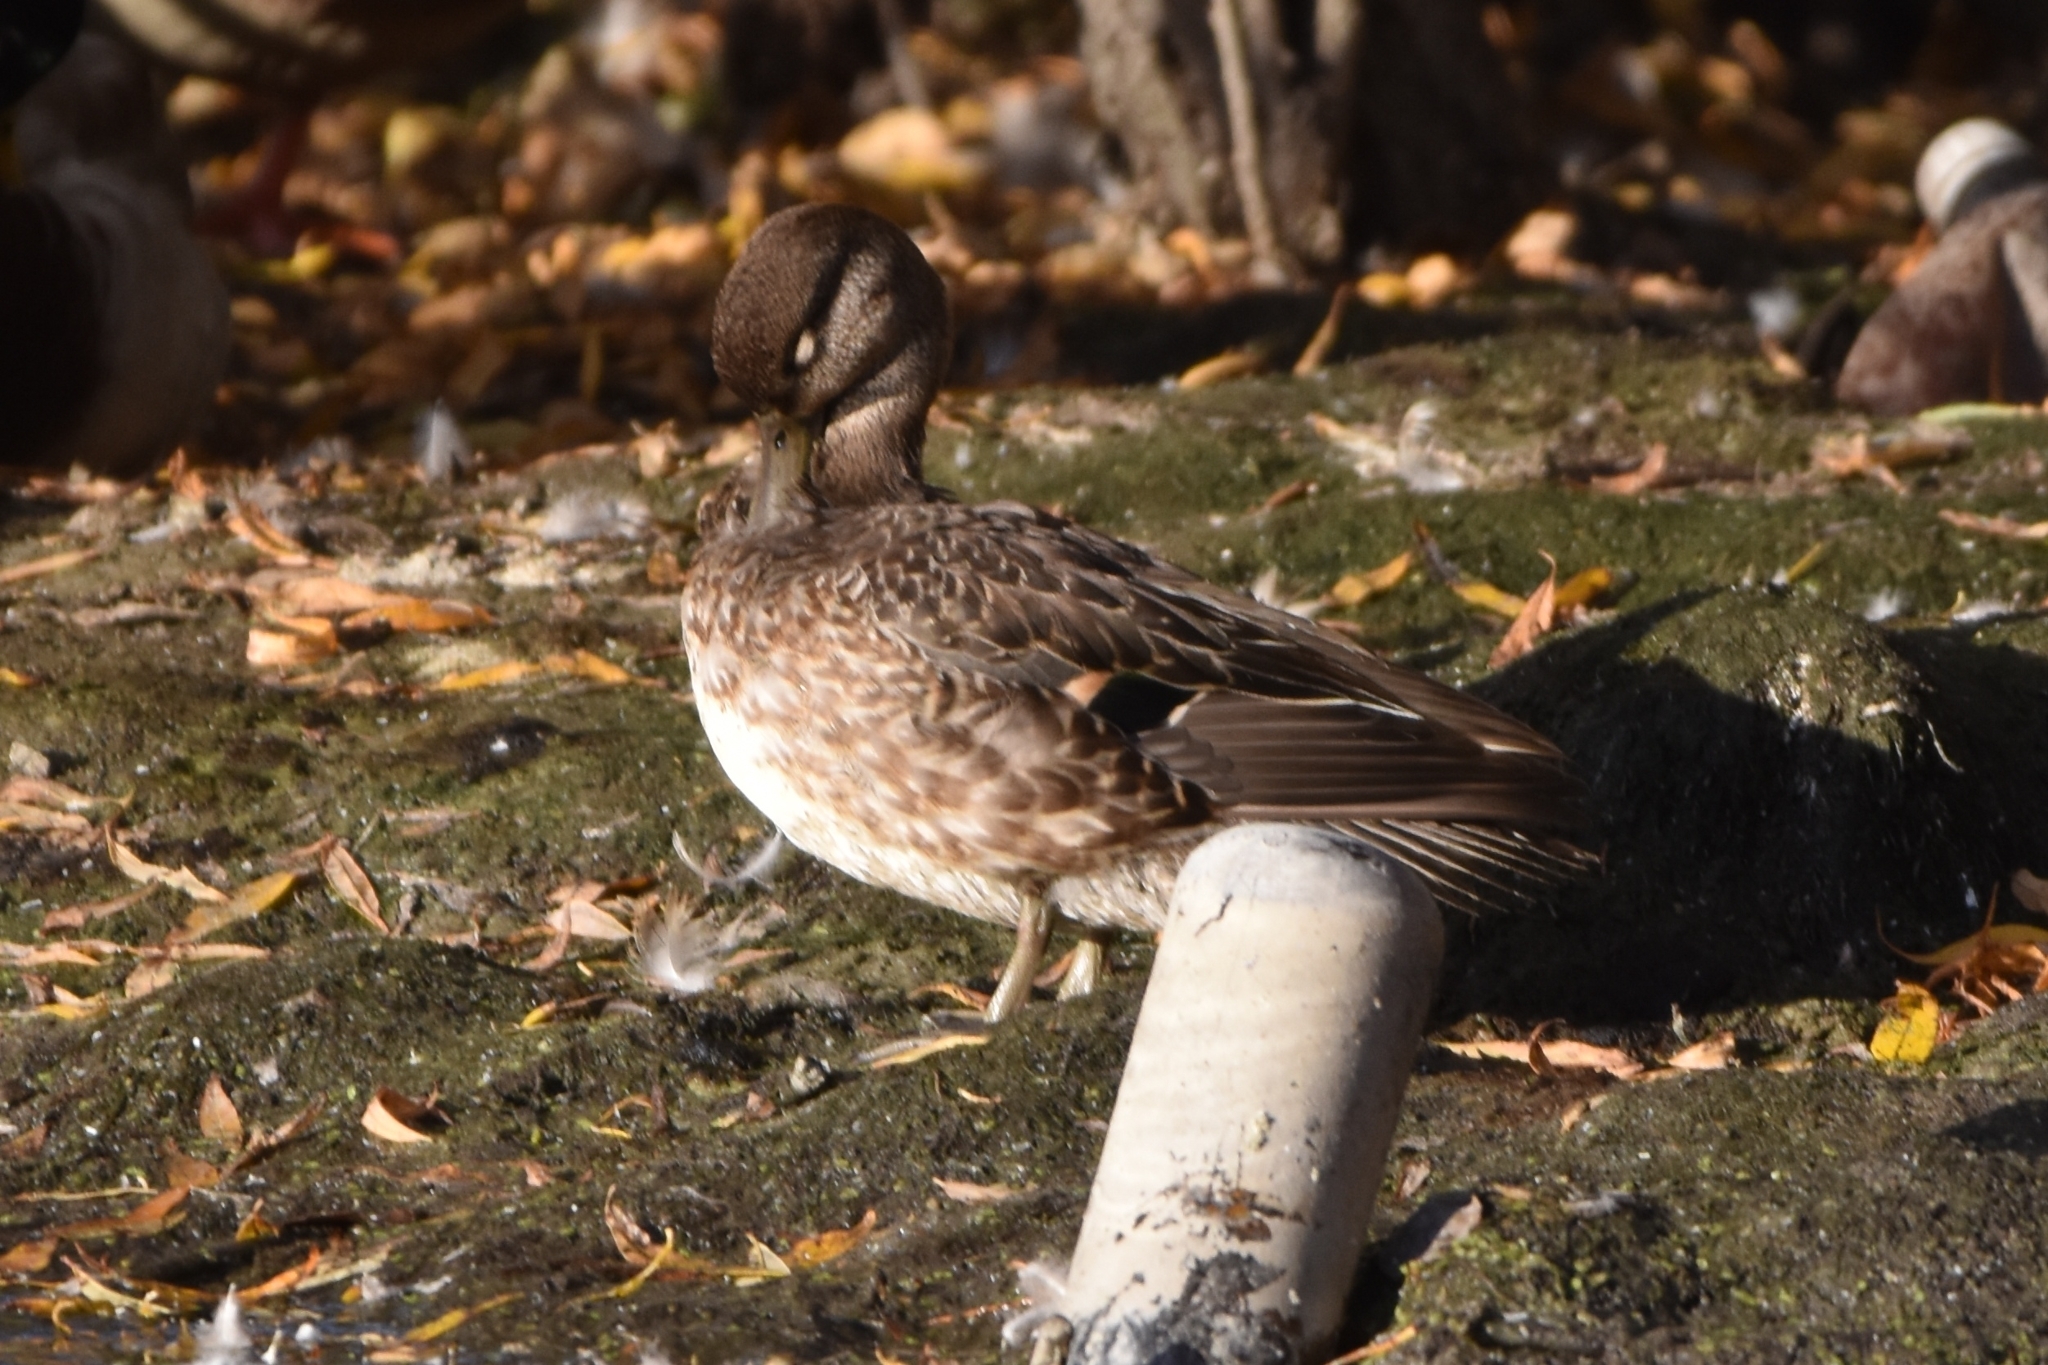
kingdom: Animalia
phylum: Chordata
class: Aves
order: Anseriformes
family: Anatidae
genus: Anas
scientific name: Anas crecca
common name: Eurasian teal
